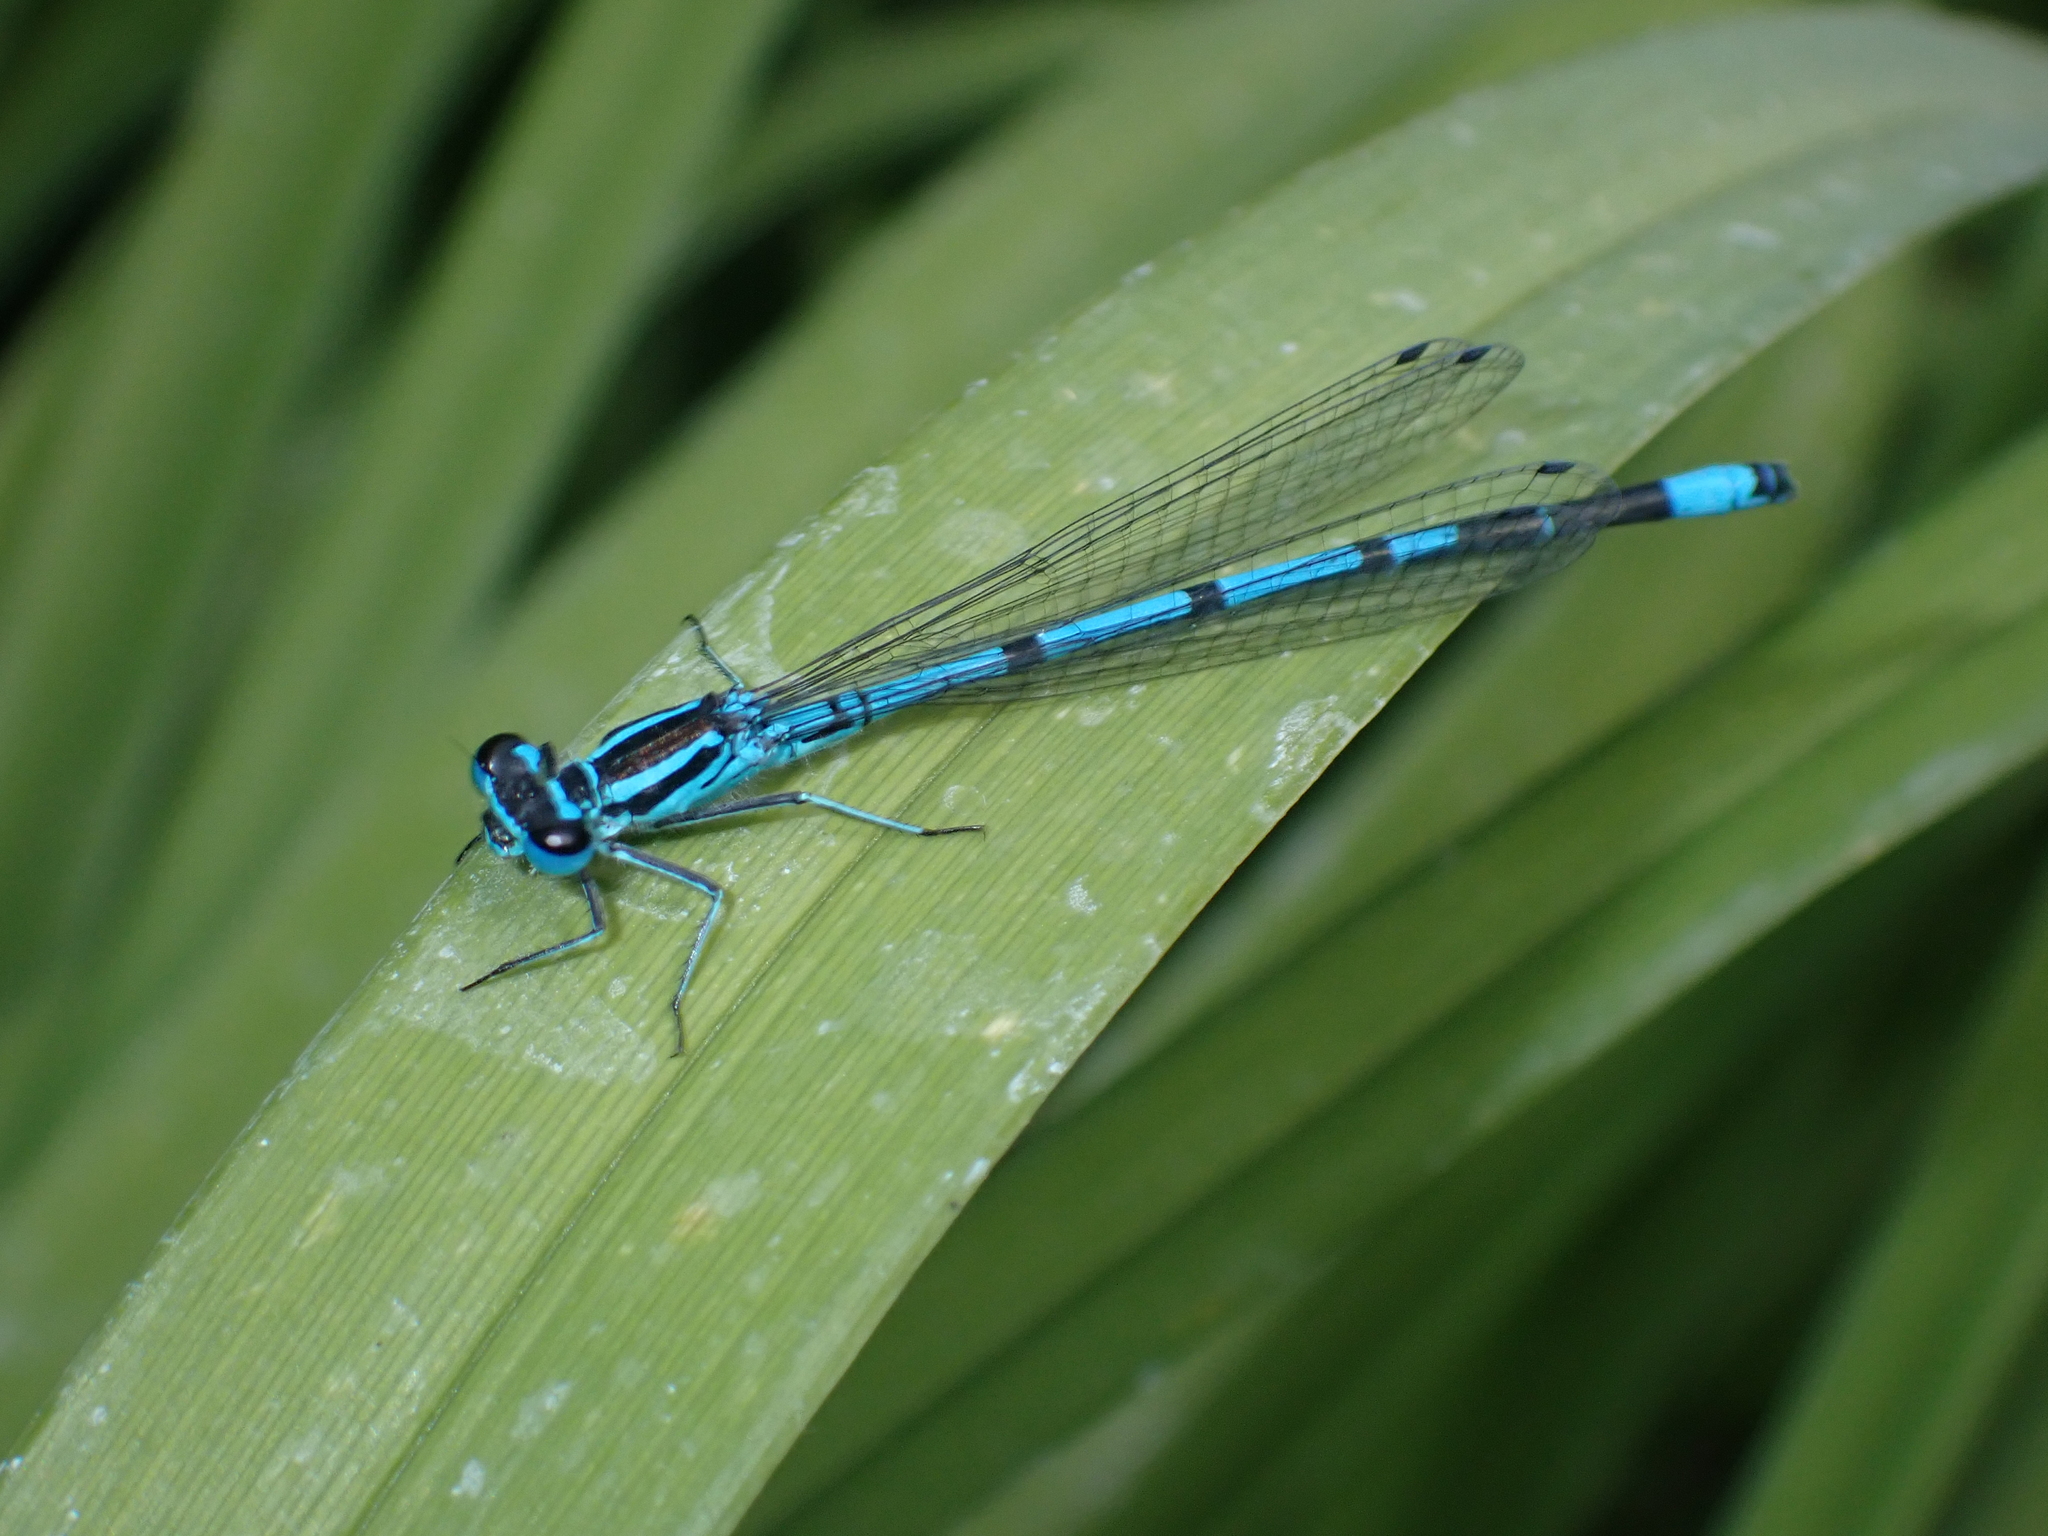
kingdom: Animalia
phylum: Arthropoda
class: Insecta
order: Odonata
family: Coenagrionidae
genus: Coenagrion
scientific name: Coenagrion puella
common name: Azure damselfly
